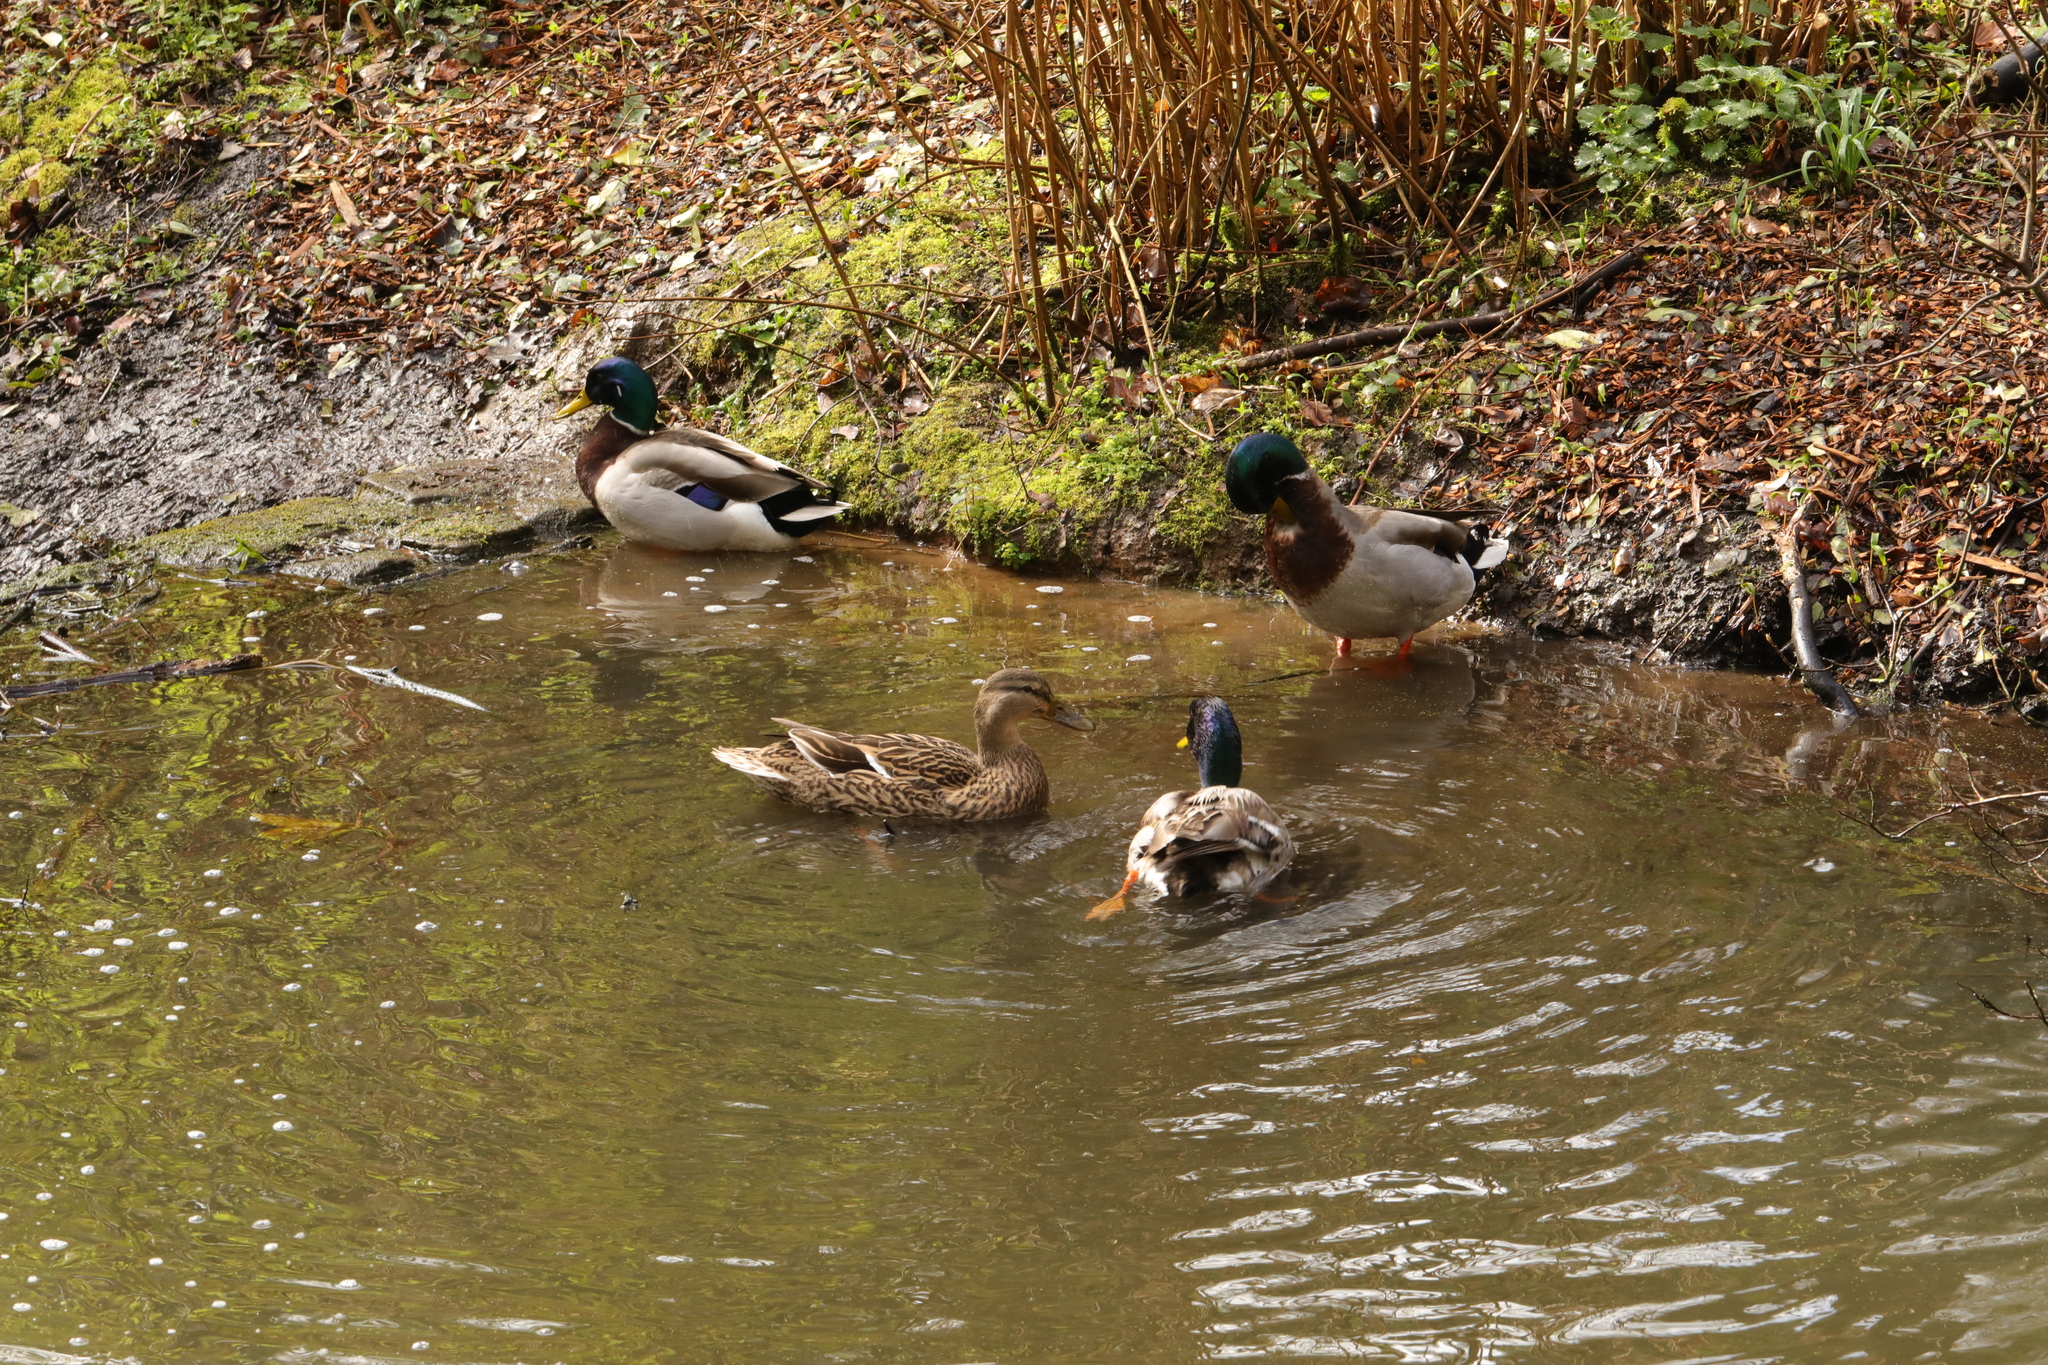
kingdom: Animalia
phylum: Chordata
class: Aves
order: Anseriformes
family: Anatidae
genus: Anas
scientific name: Anas platyrhynchos
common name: Mallard
